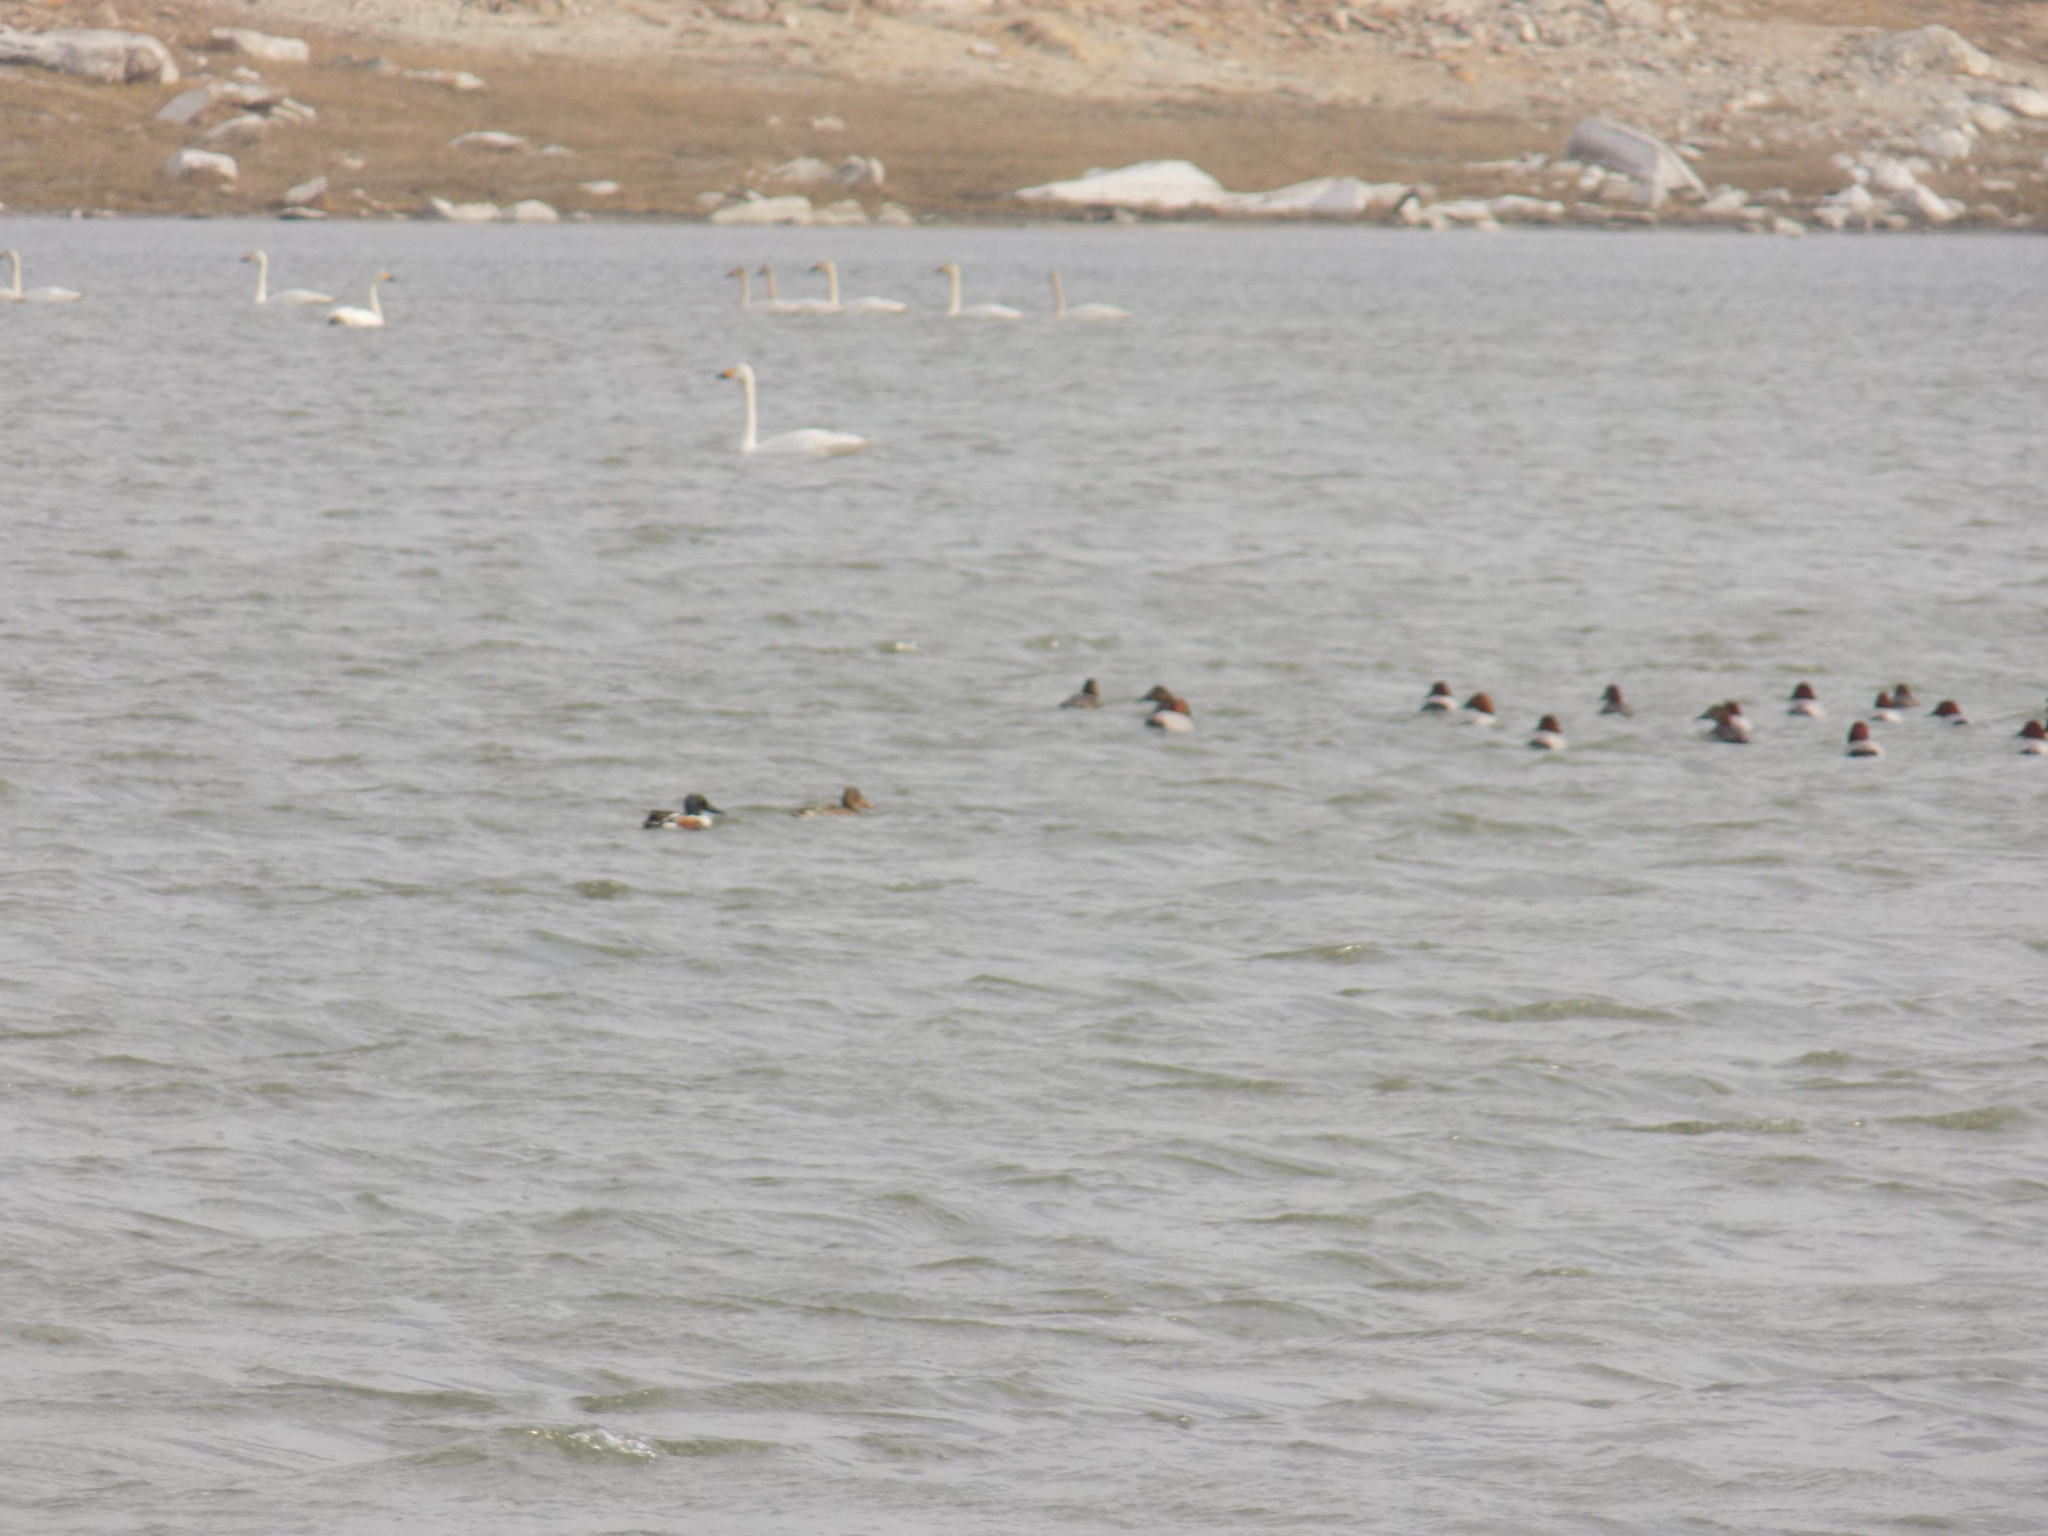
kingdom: Animalia
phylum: Chordata
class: Aves
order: Anseriformes
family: Anatidae
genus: Aythya
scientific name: Aythya ferina
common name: Common pochard
